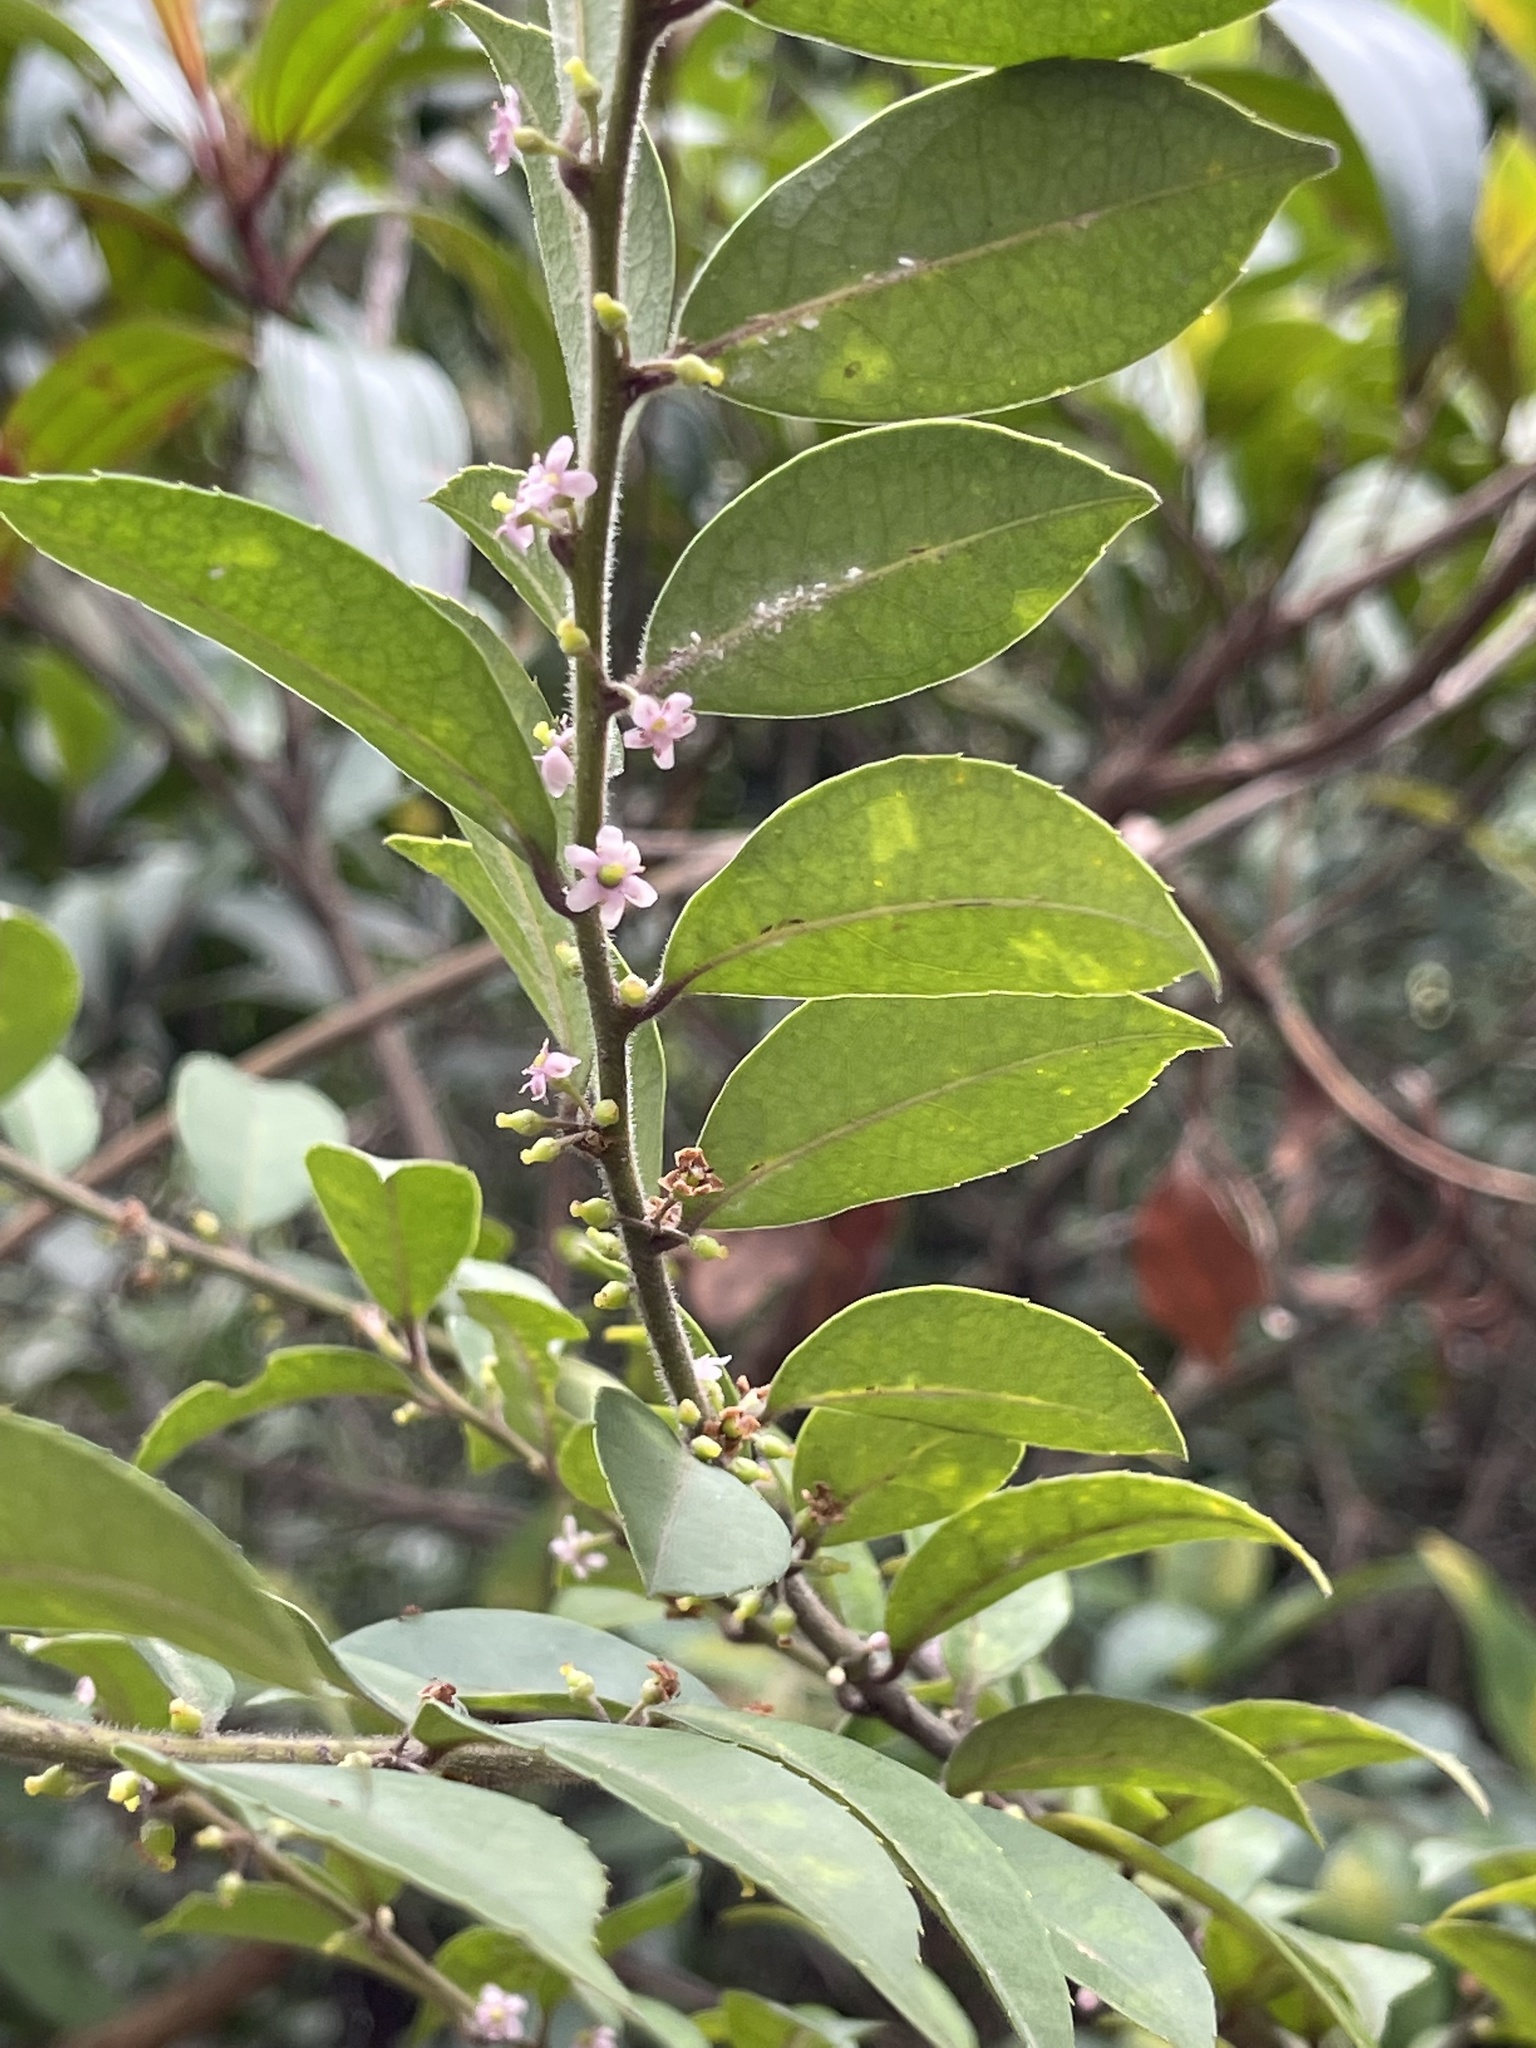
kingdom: Plantae
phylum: Tracheophyta
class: Magnoliopsida
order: Aquifoliales
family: Aquifoliaceae
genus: Ilex
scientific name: Ilex pubescens
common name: Pubescent holly
